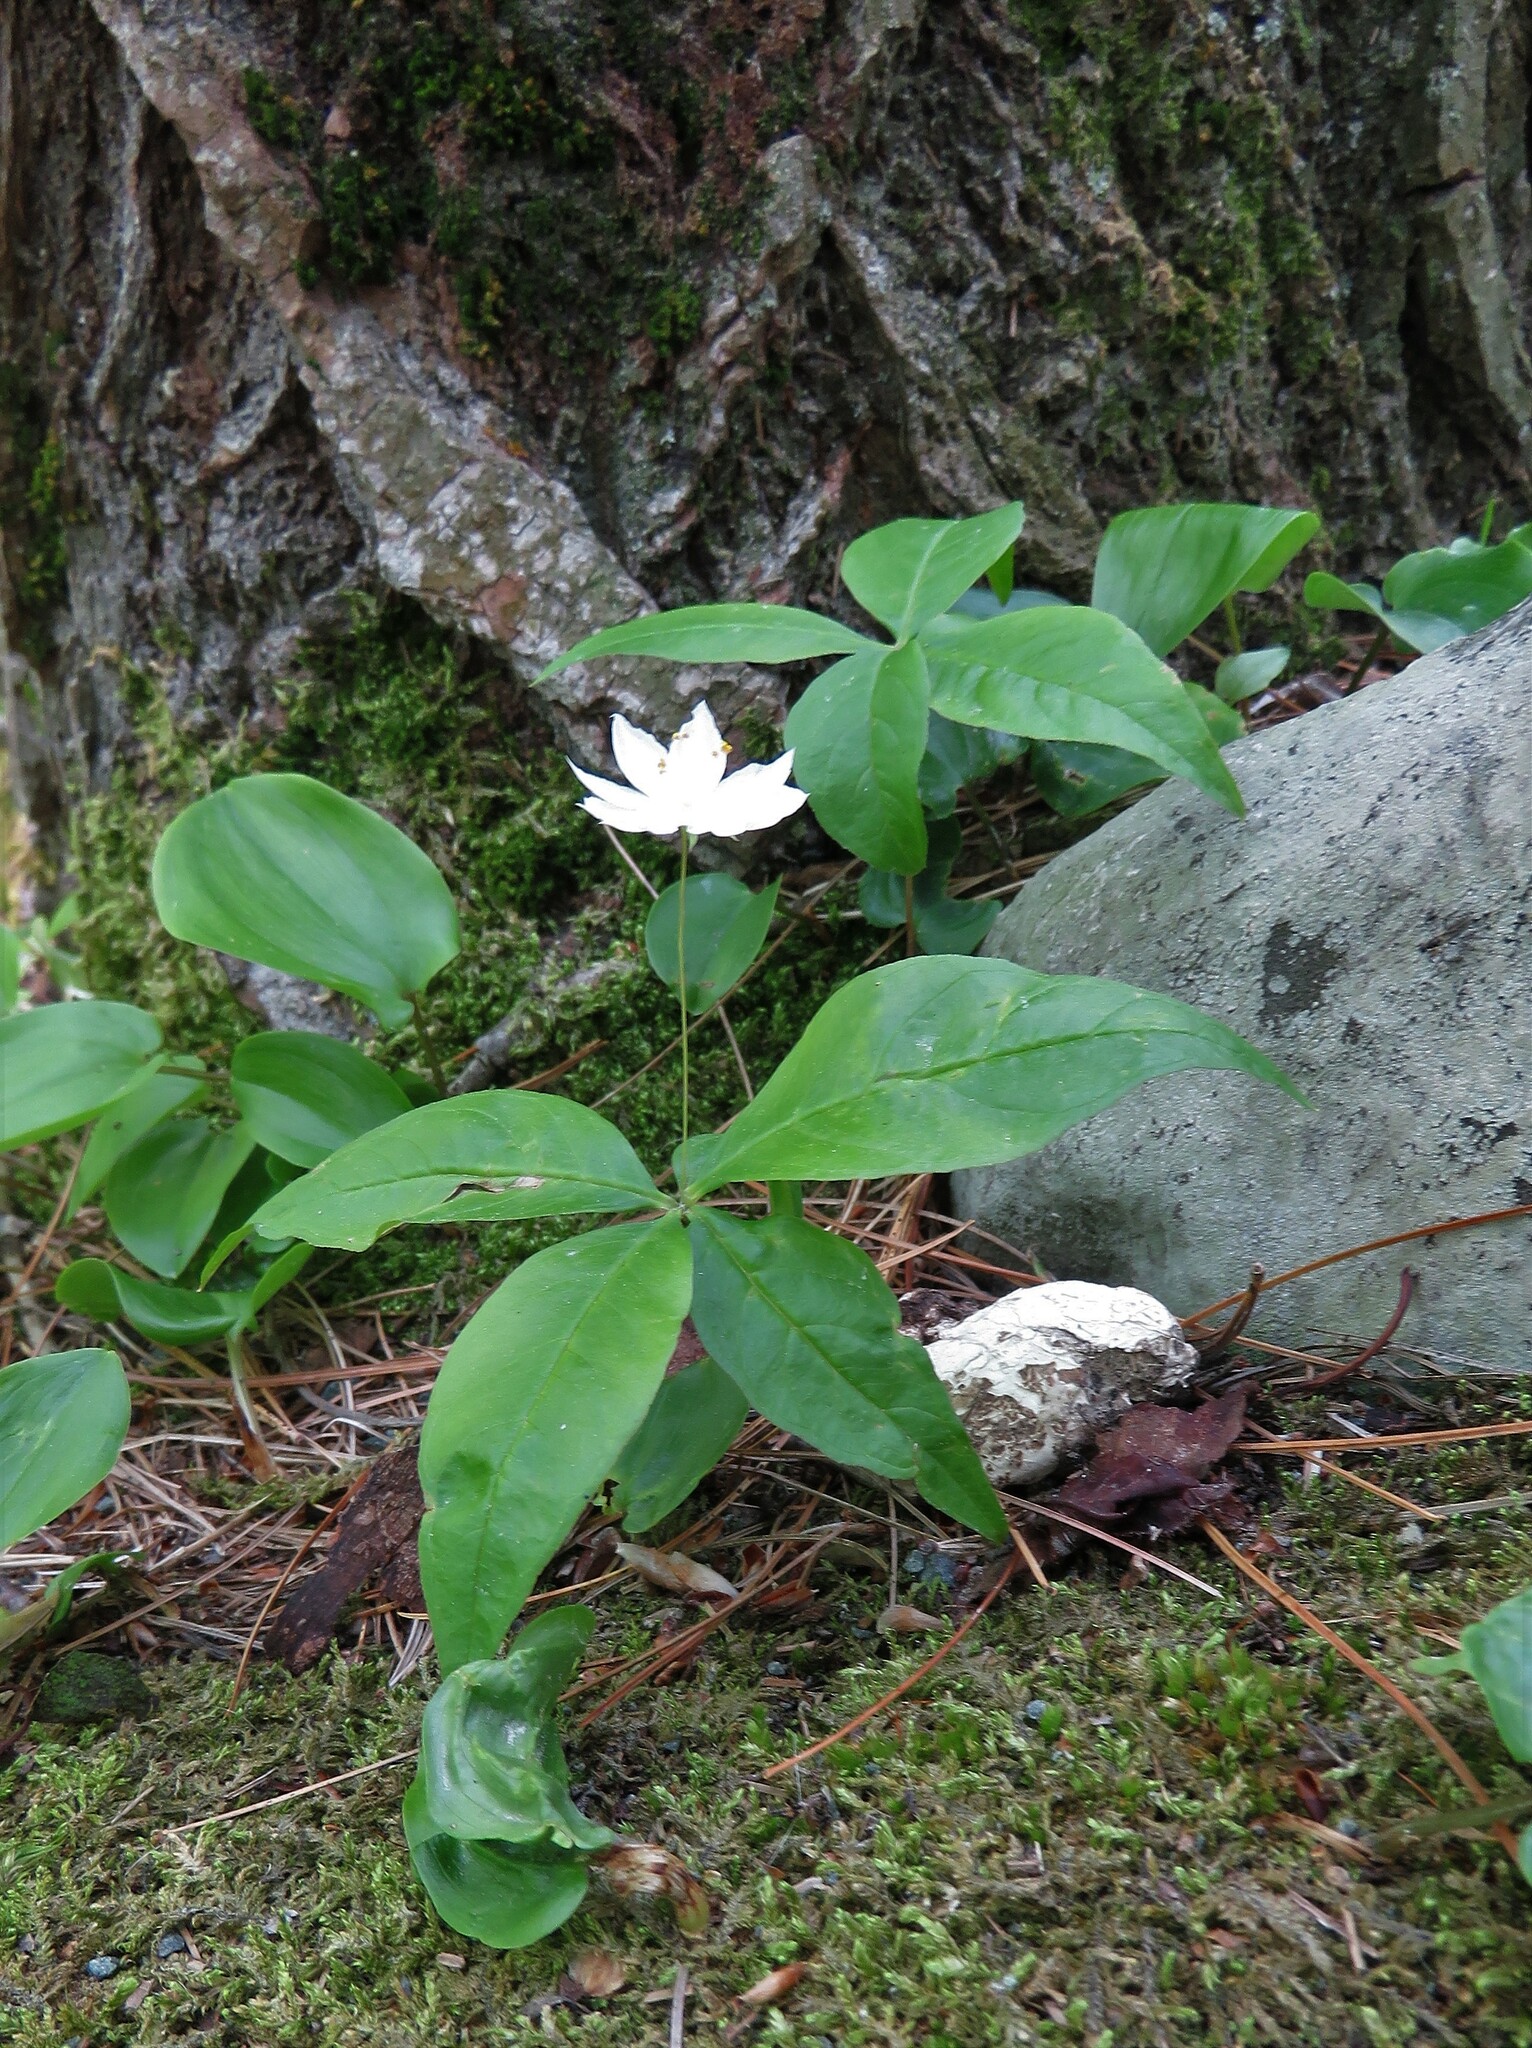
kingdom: Plantae
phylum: Tracheophyta
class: Magnoliopsida
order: Ericales
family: Primulaceae
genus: Lysimachia
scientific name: Lysimachia borealis
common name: American starflower
